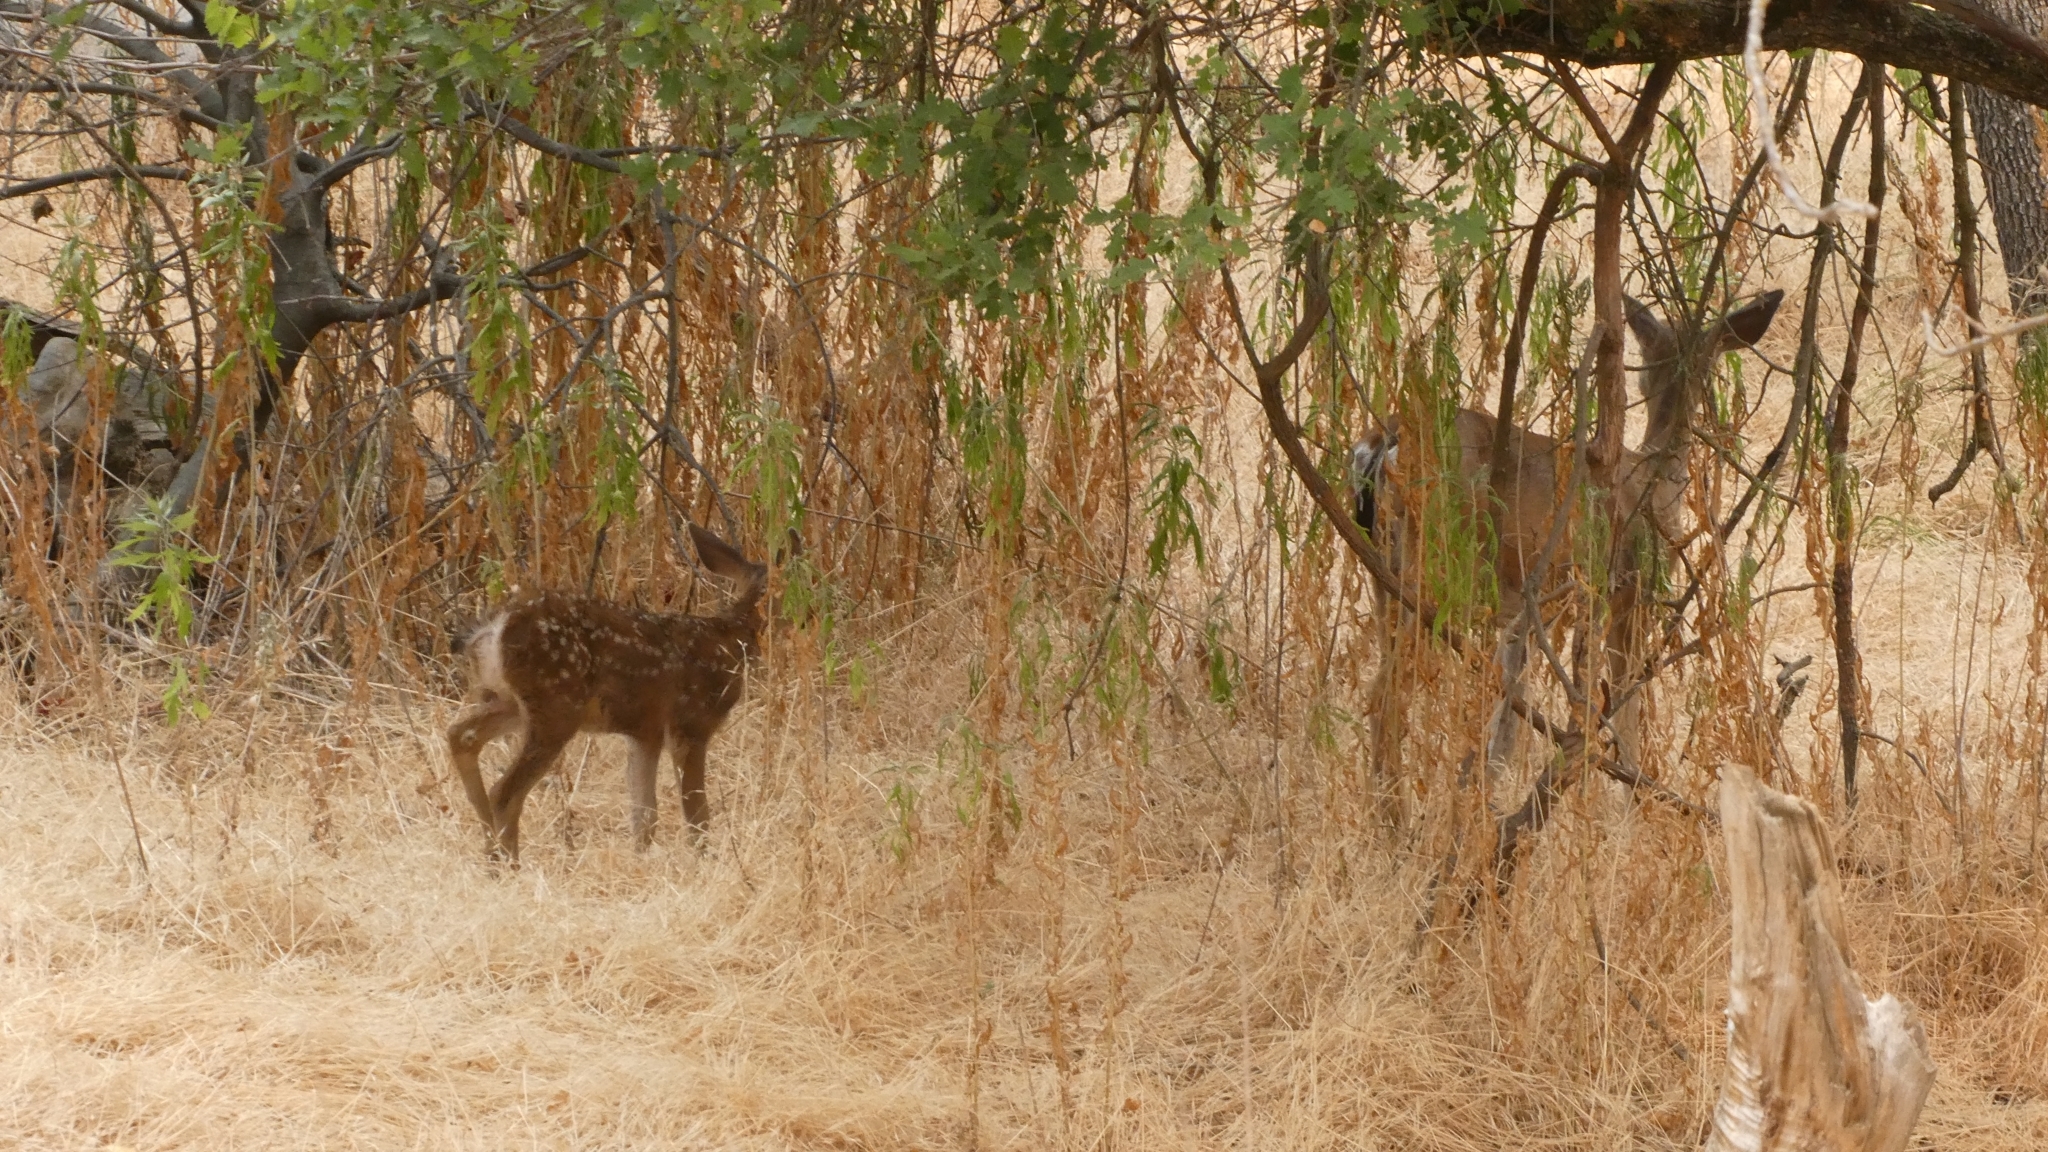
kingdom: Animalia
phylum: Chordata
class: Mammalia
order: Artiodactyla
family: Cervidae
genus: Odocoileus
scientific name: Odocoileus hemionus
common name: Mule deer
